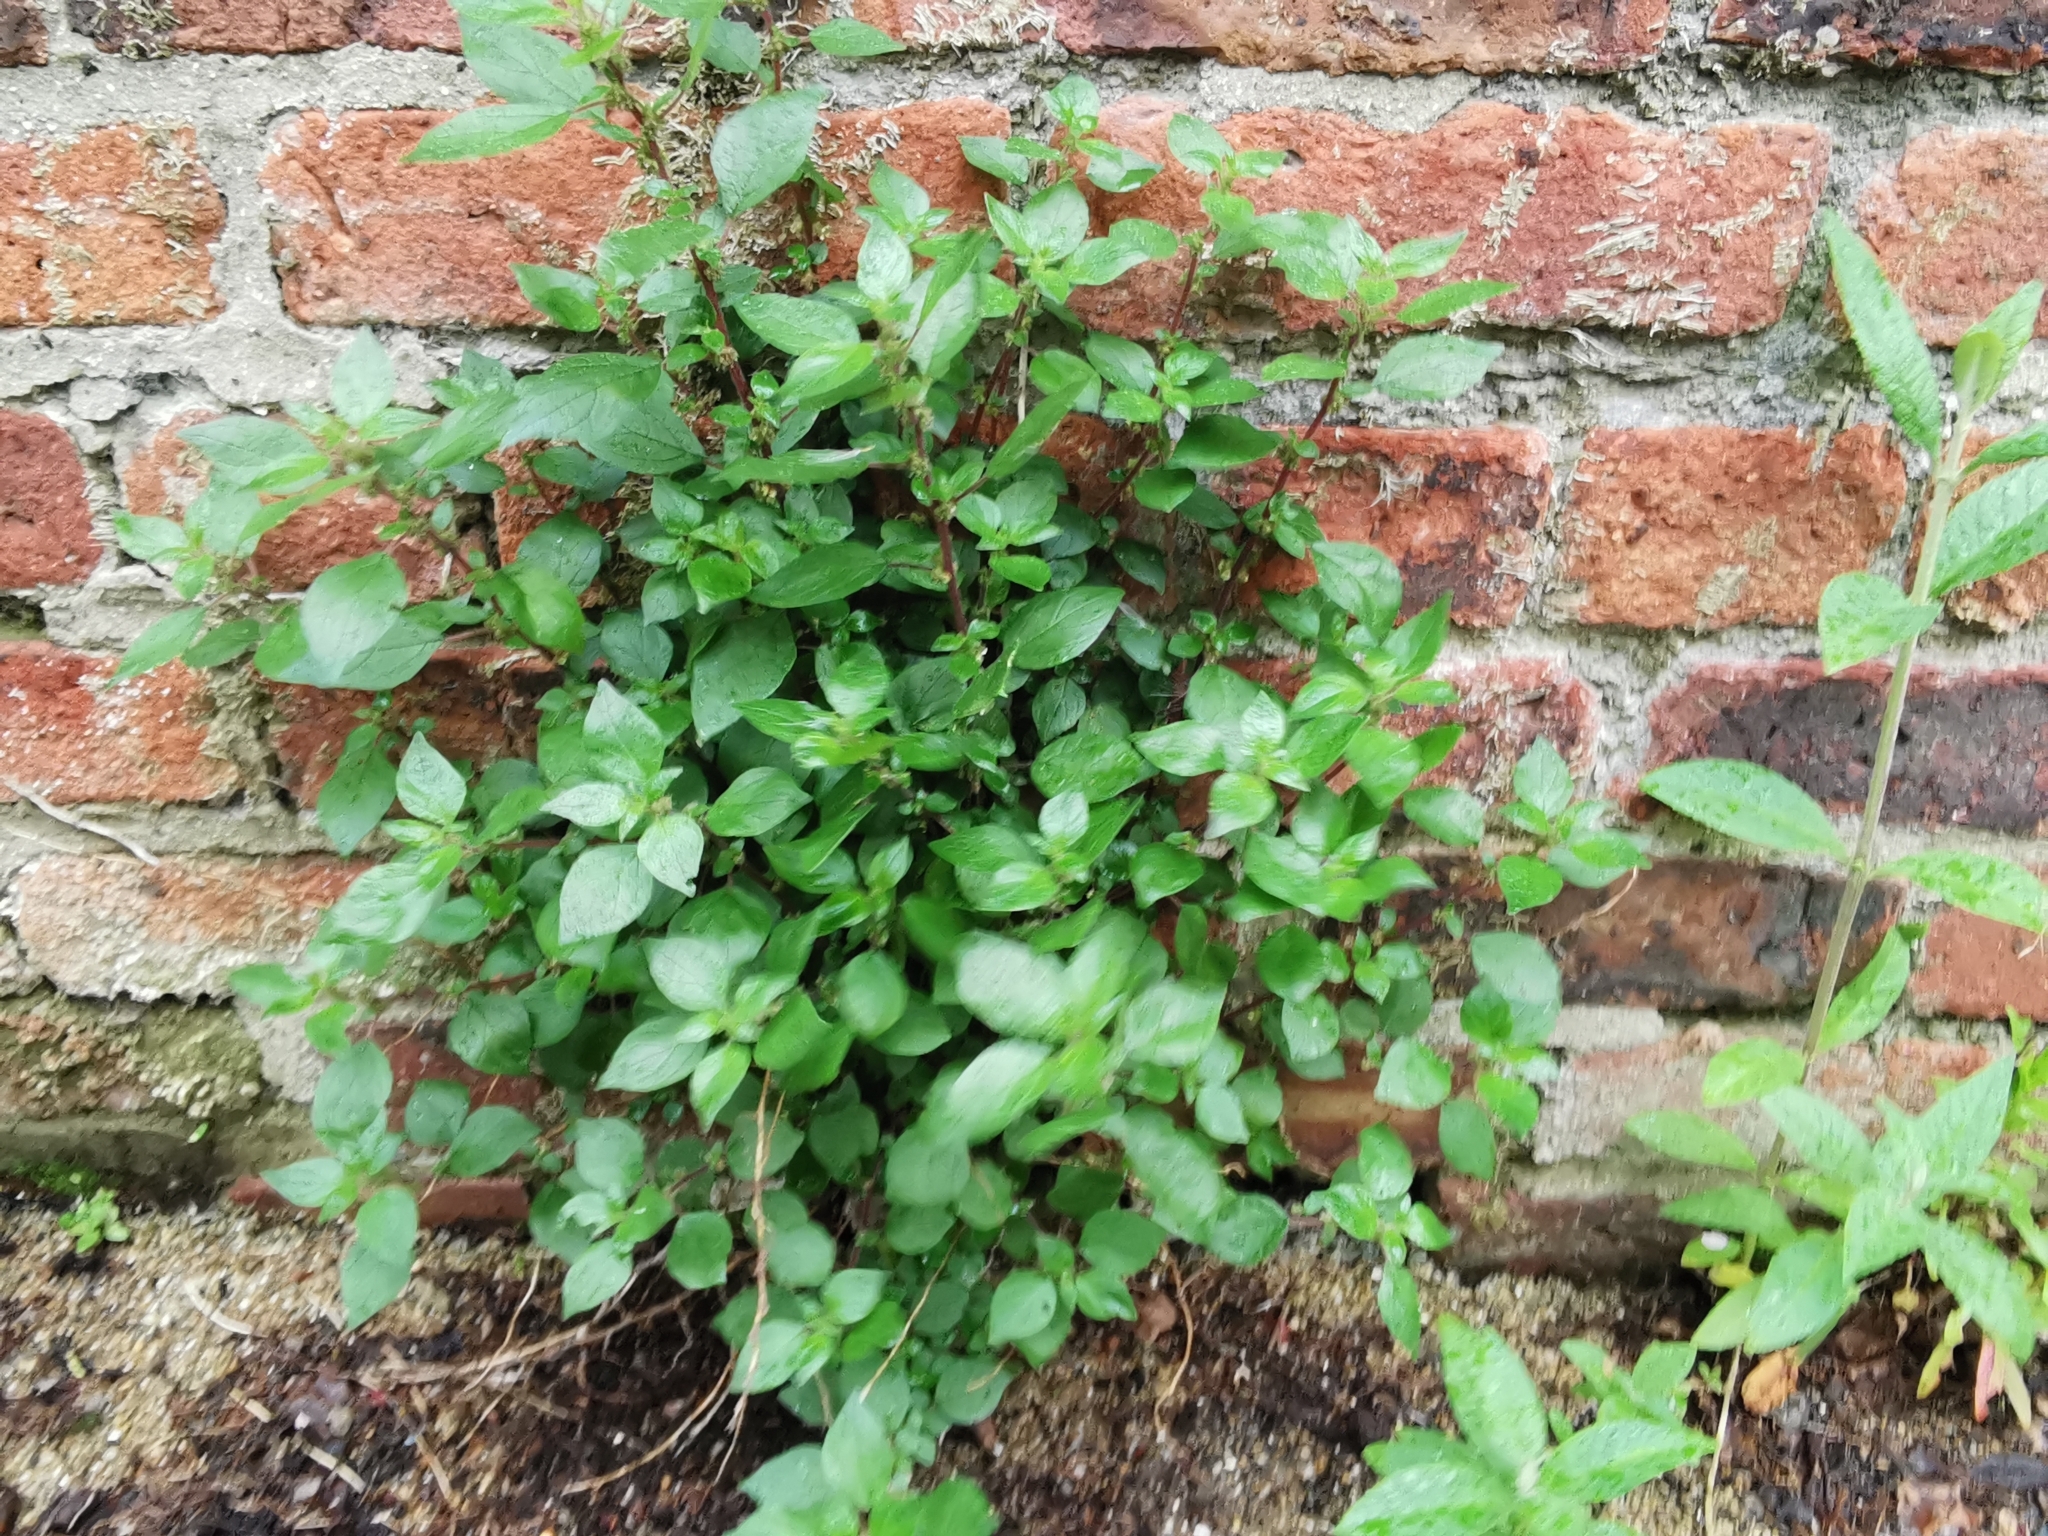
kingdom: Plantae
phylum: Tracheophyta
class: Magnoliopsida
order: Rosales
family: Urticaceae
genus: Parietaria
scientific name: Parietaria judaica
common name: Pellitory-of-the-wall
